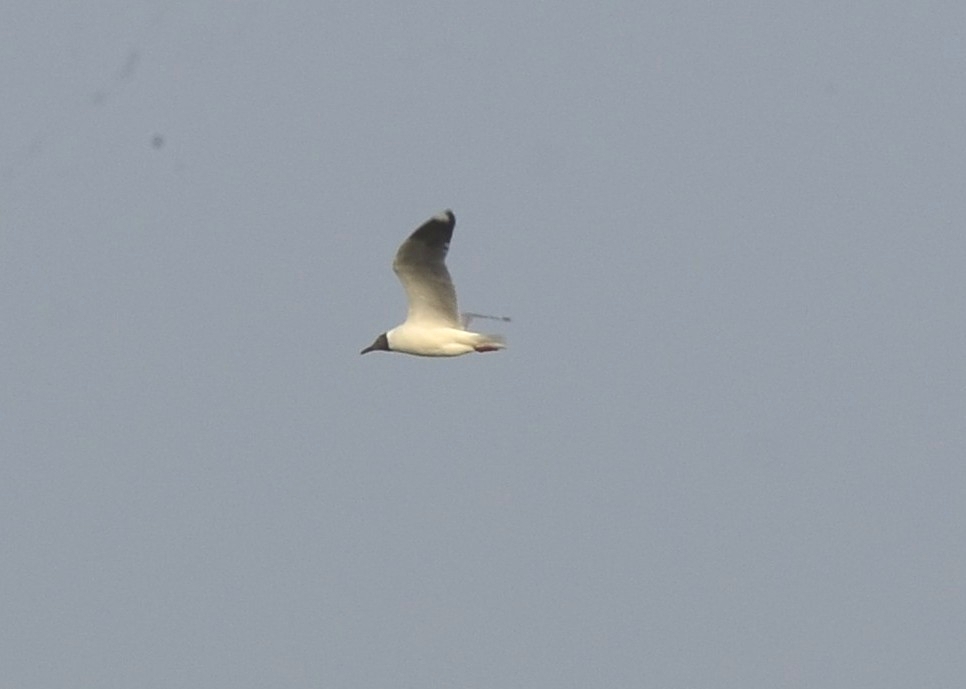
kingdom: Animalia
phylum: Chordata
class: Aves
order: Charadriiformes
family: Laridae
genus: Chroicocephalus
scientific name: Chroicocephalus brunnicephalus
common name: Brown-headed gull
